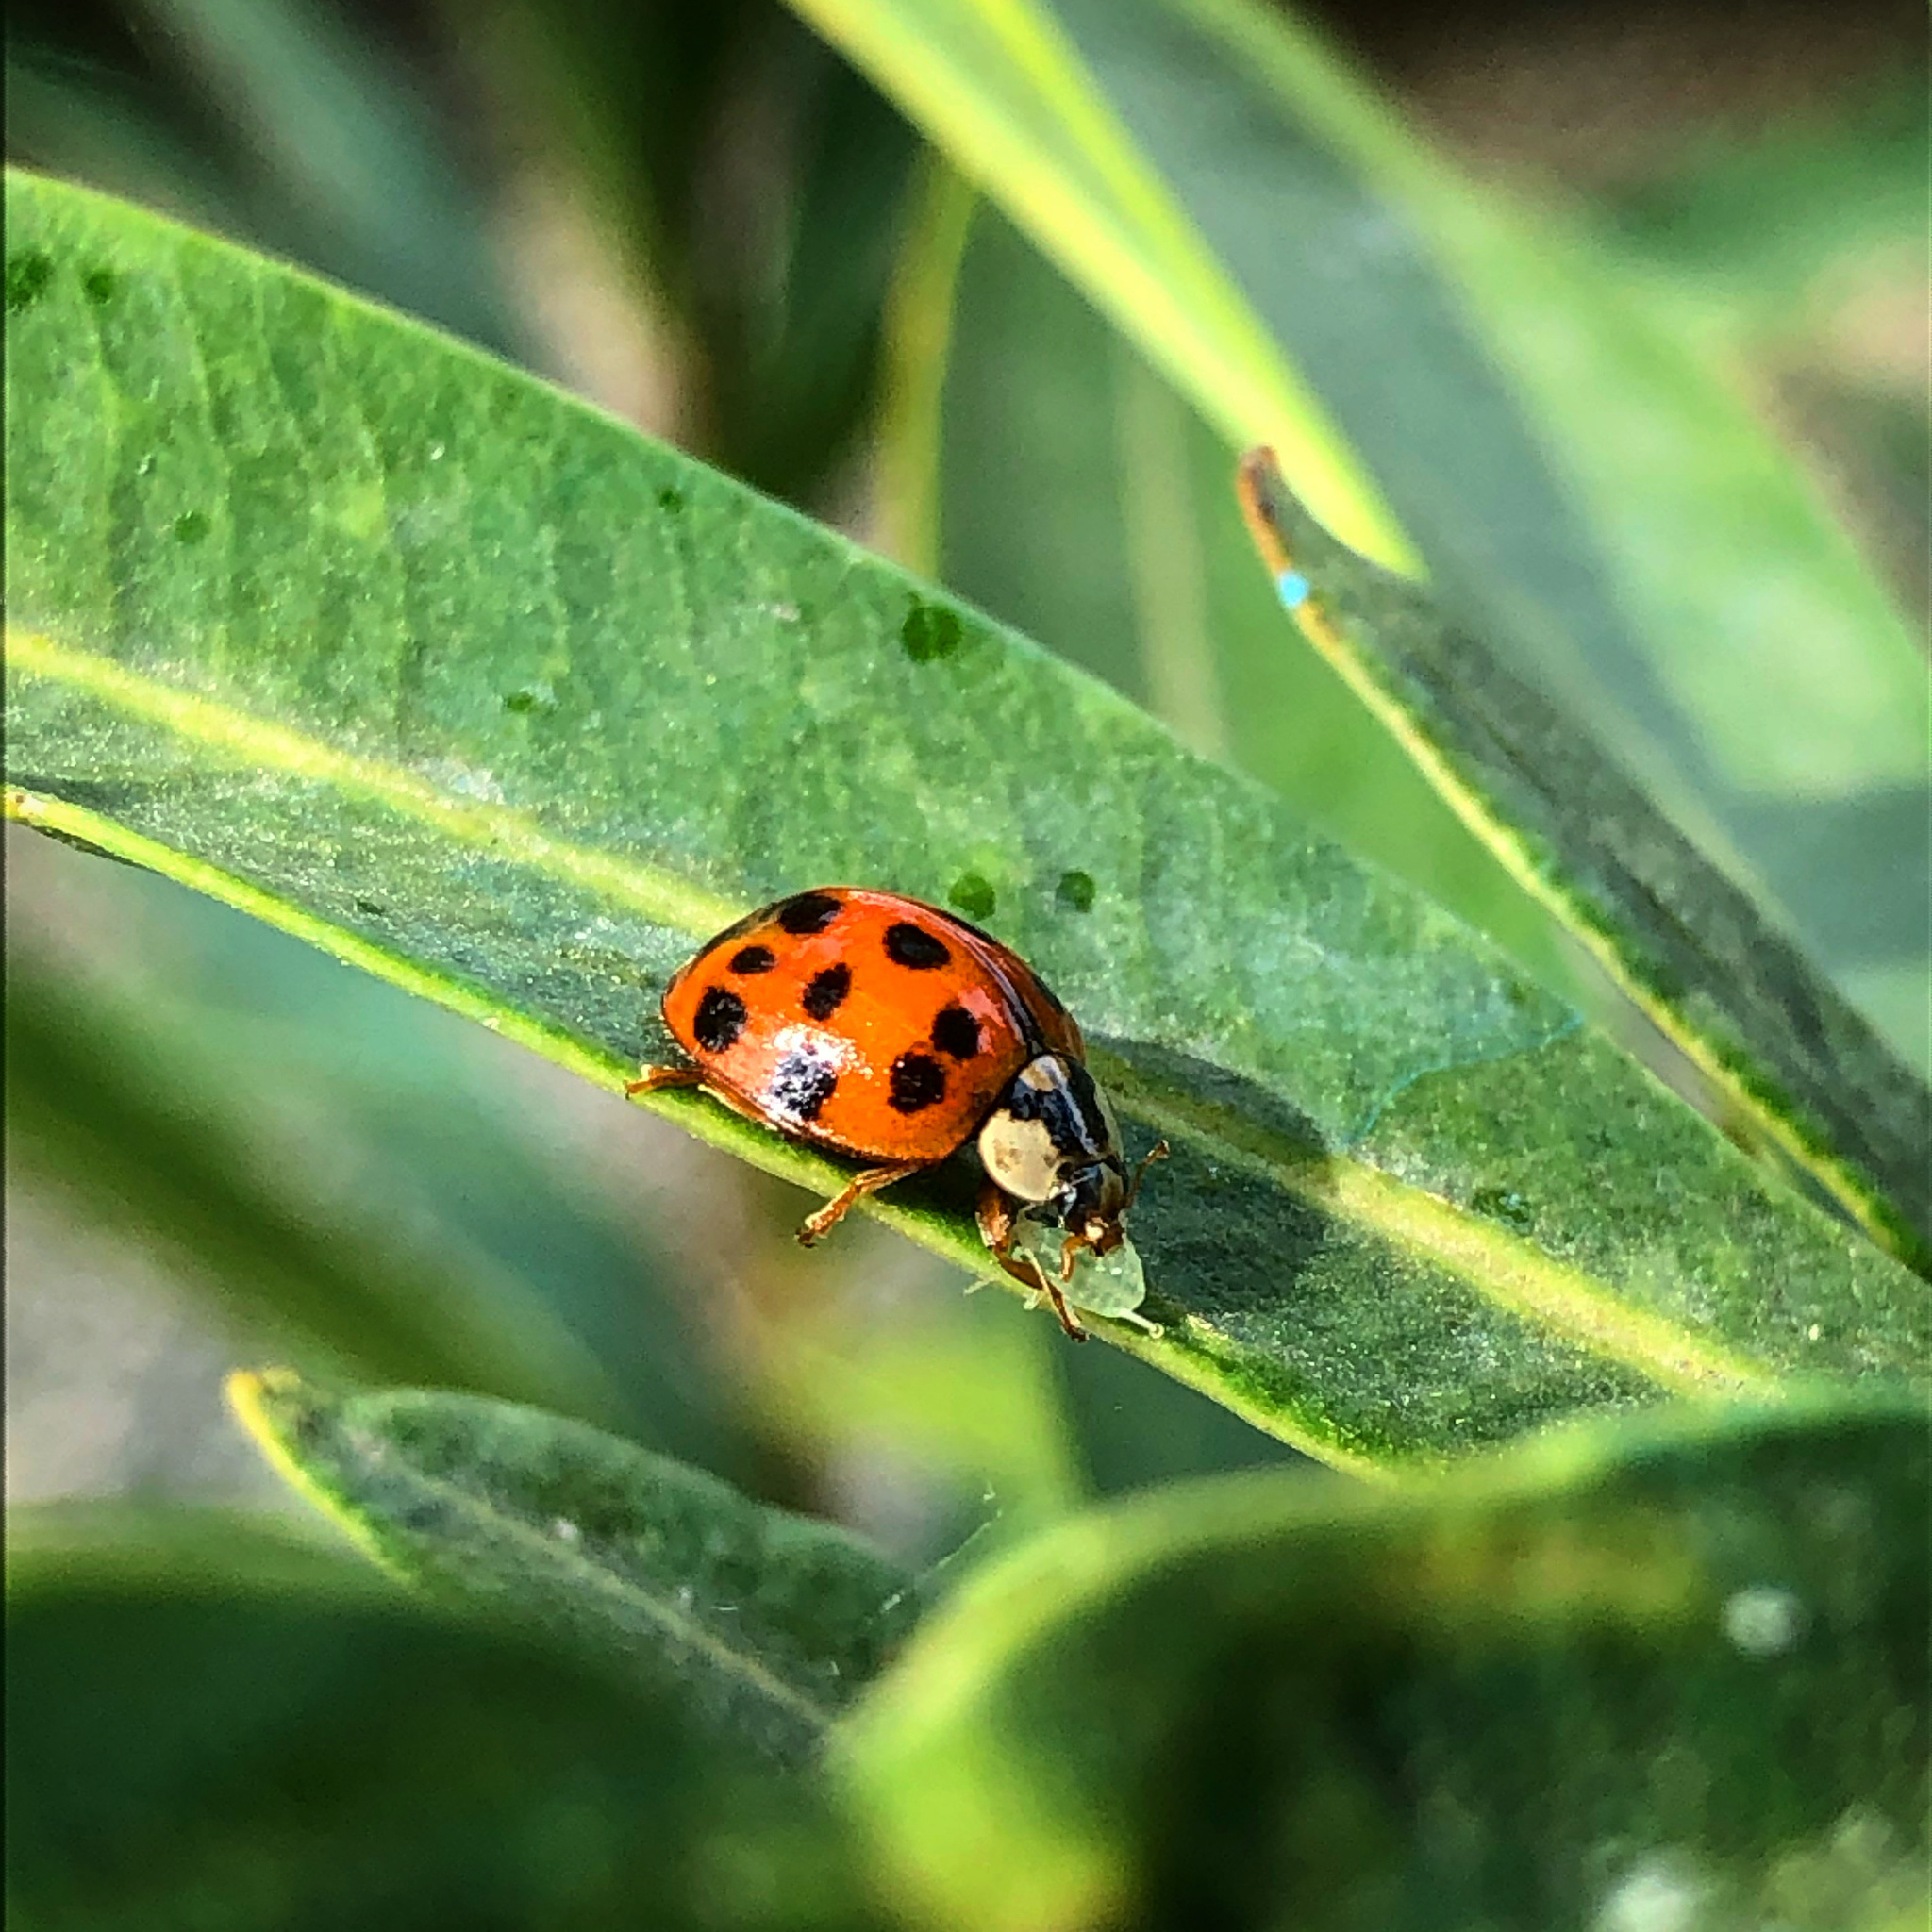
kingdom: Animalia
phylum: Arthropoda
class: Insecta
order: Coleoptera
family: Coccinellidae
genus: Harmonia
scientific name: Harmonia axyridis
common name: Harlequin ladybird
